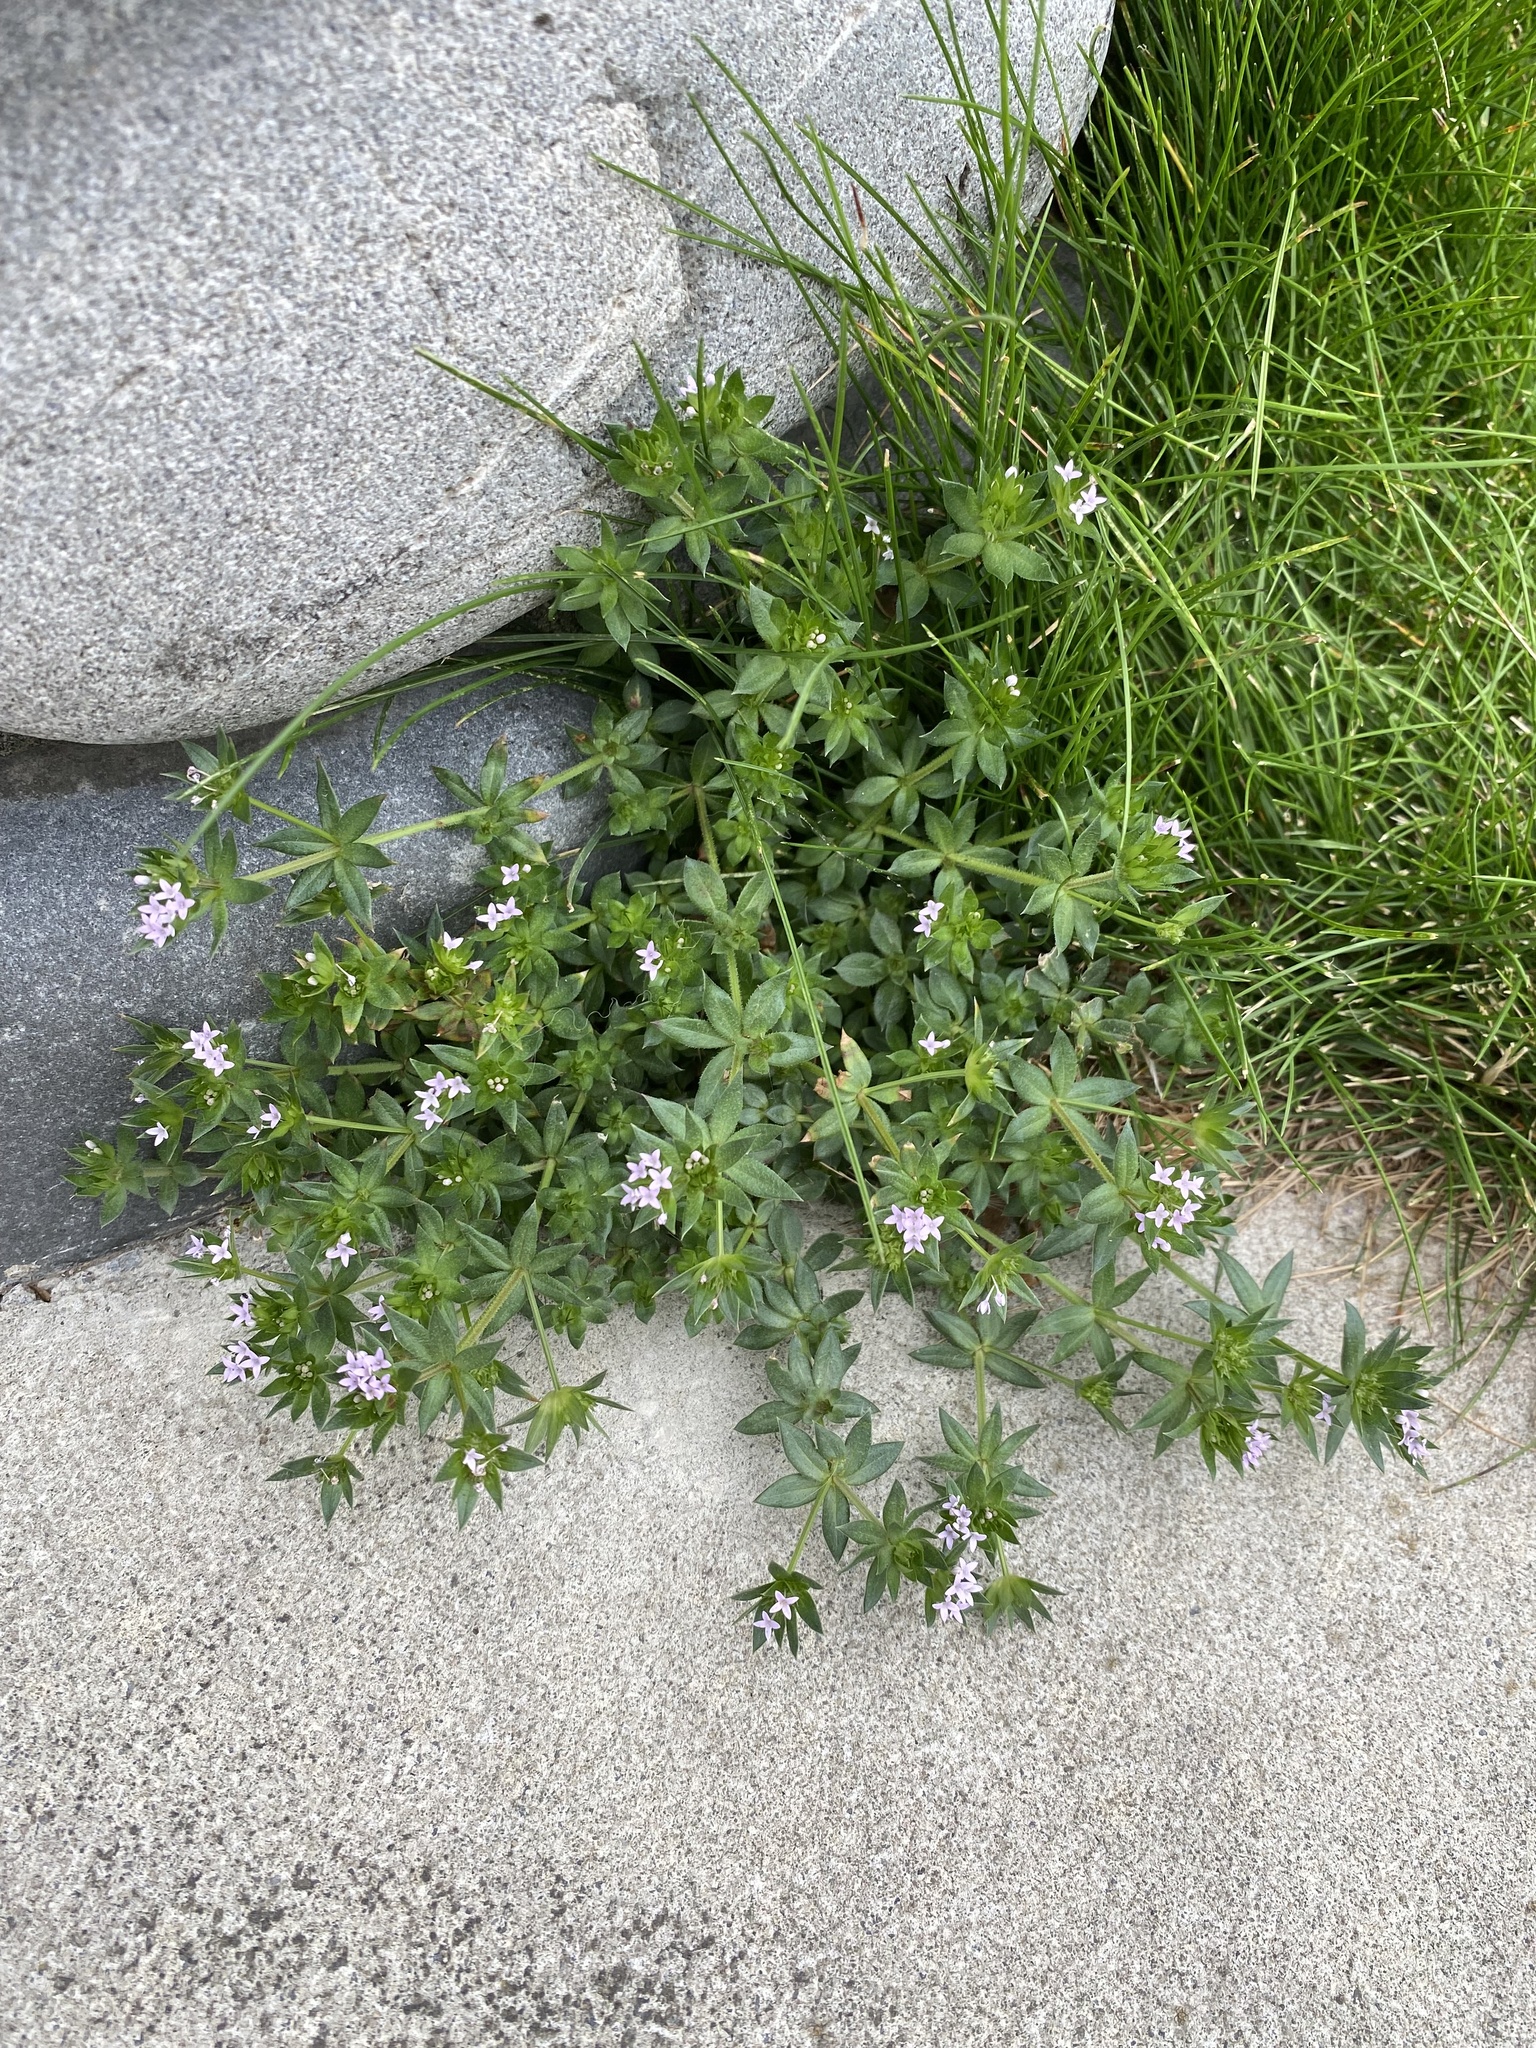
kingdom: Plantae
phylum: Tracheophyta
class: Magnoliopsida
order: Gentianales
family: Rubiaceae
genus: Sherardia
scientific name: Sherardia arvensis
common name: Field madder
